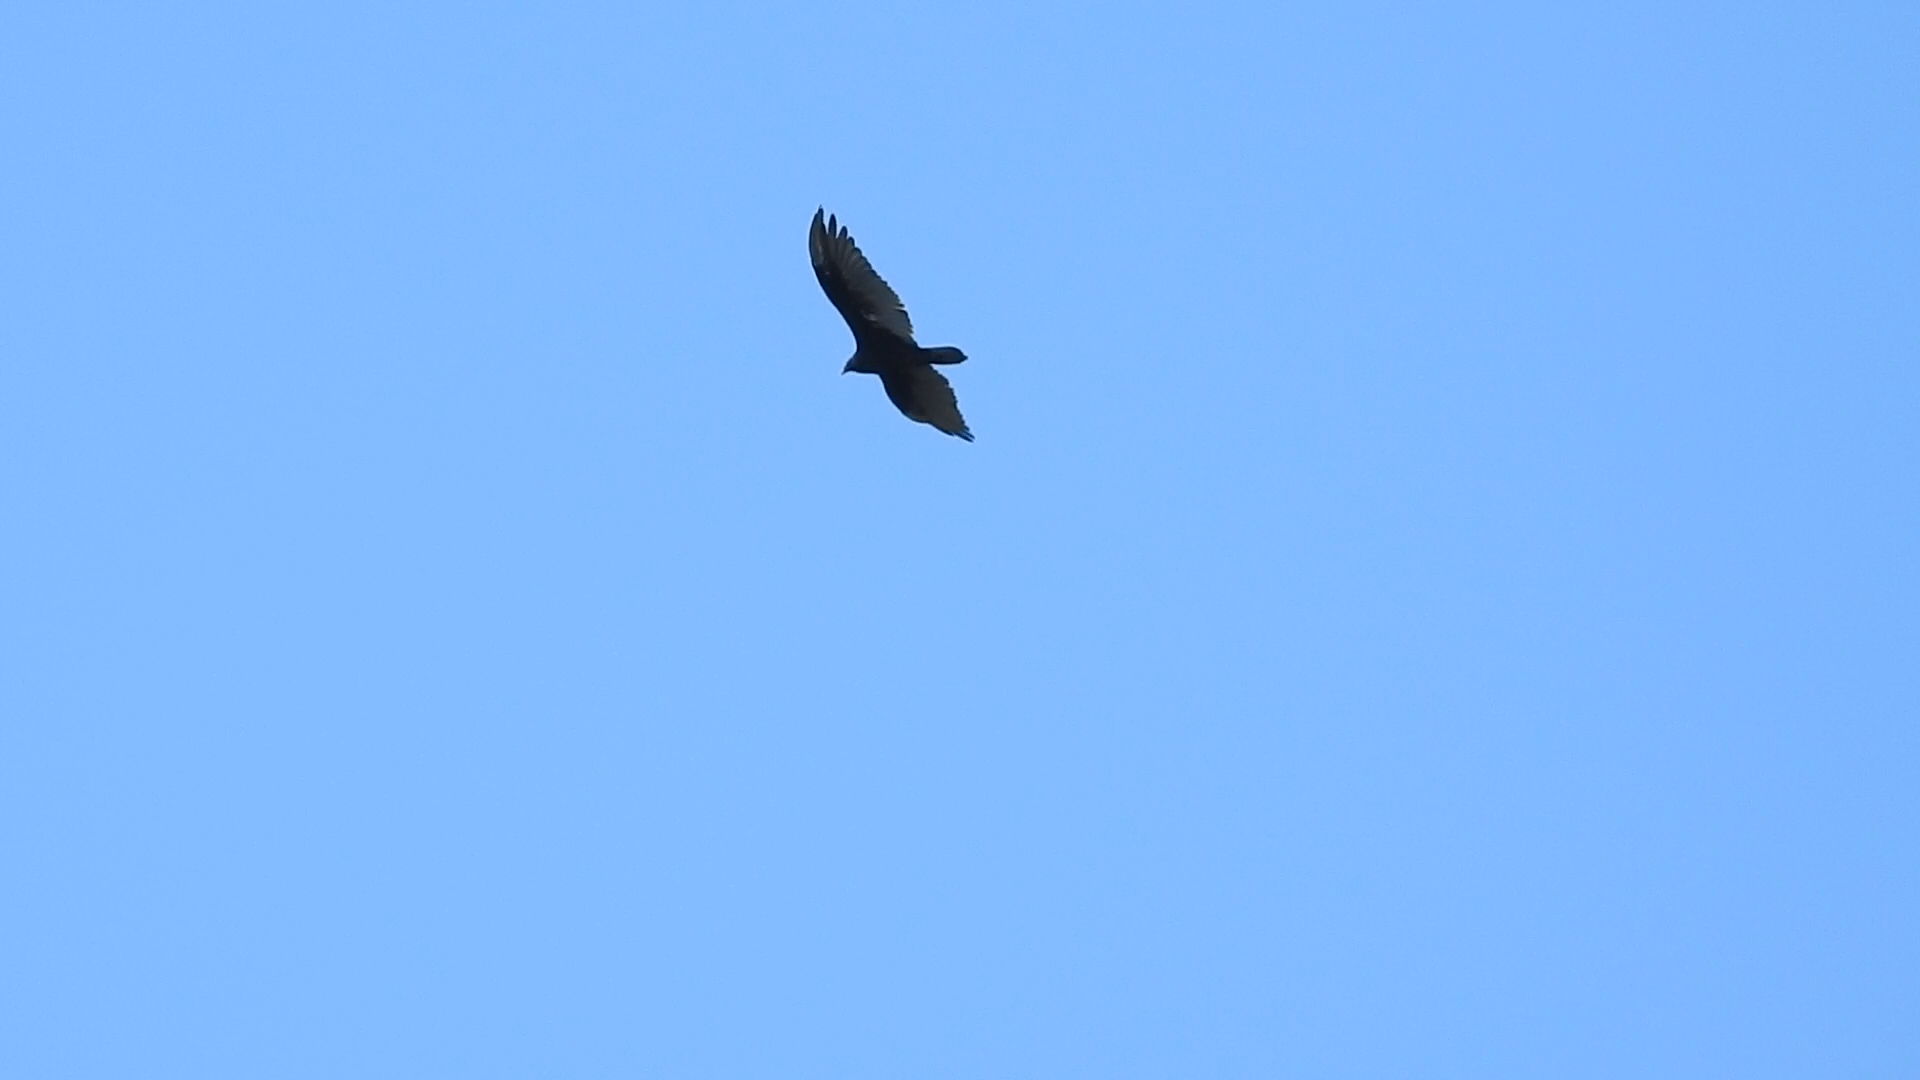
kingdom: Animalia
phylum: Chordata
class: Aves
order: Accipitriformes
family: Cathartidae
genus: Cathartes
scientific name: Cathartes aura
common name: Turkey vulture
